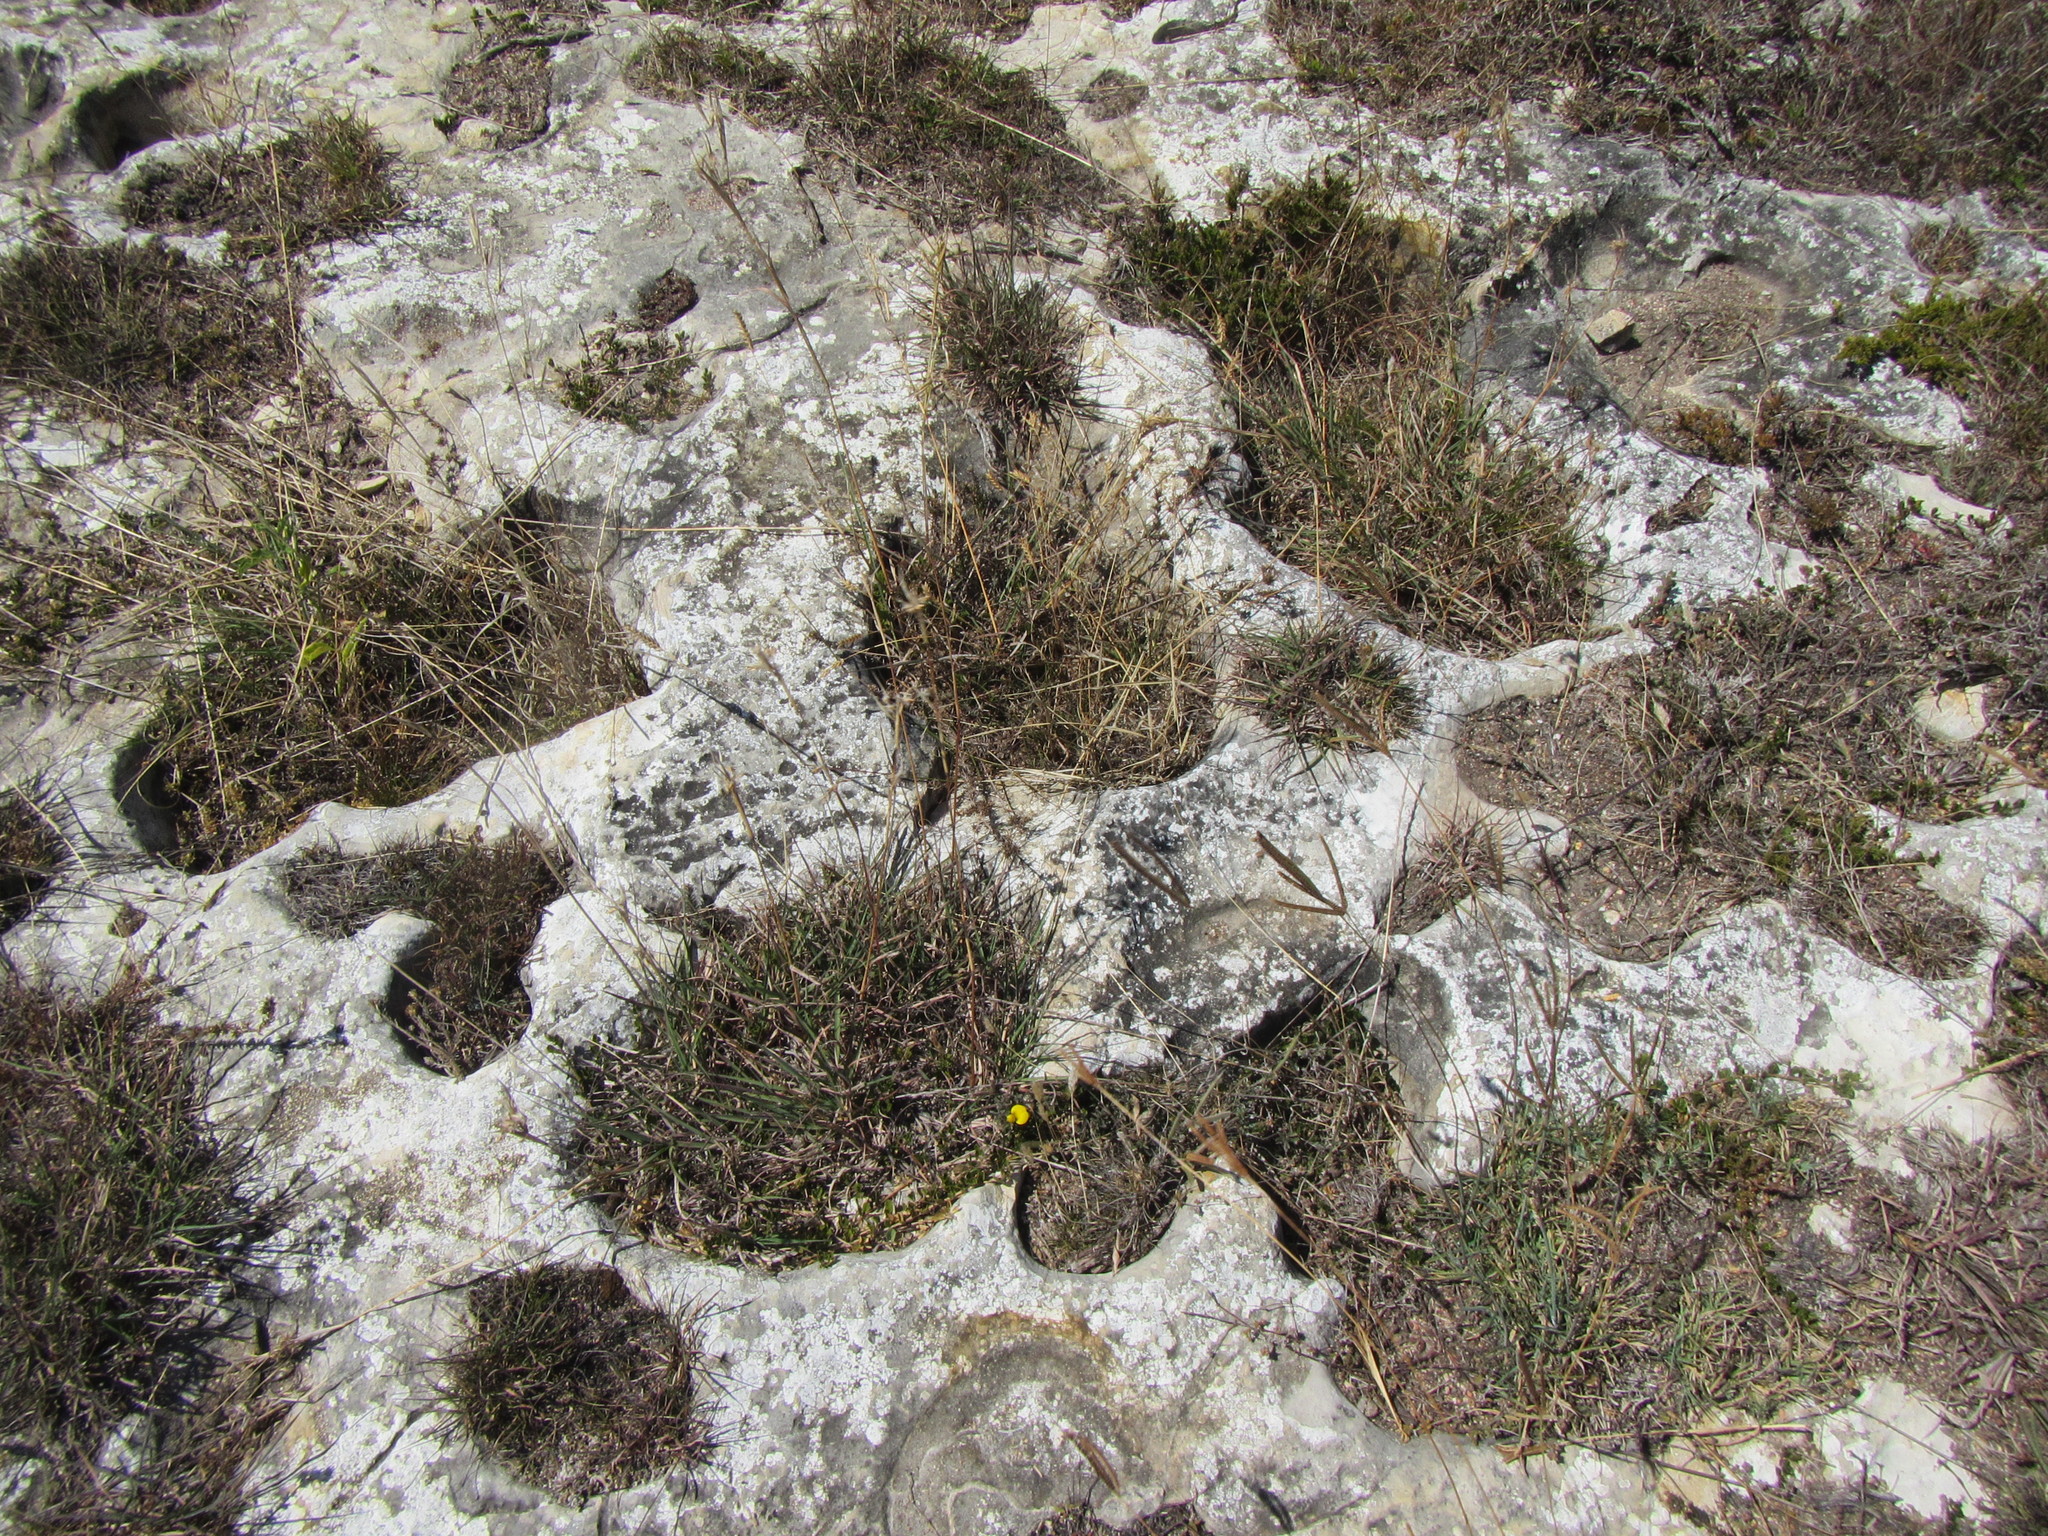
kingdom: Plantae
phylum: Tracheophyta
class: Magnoliopsida
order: Fabales
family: Fabaceae
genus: Argyrolobium
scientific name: Argyrolobium harmsianum
